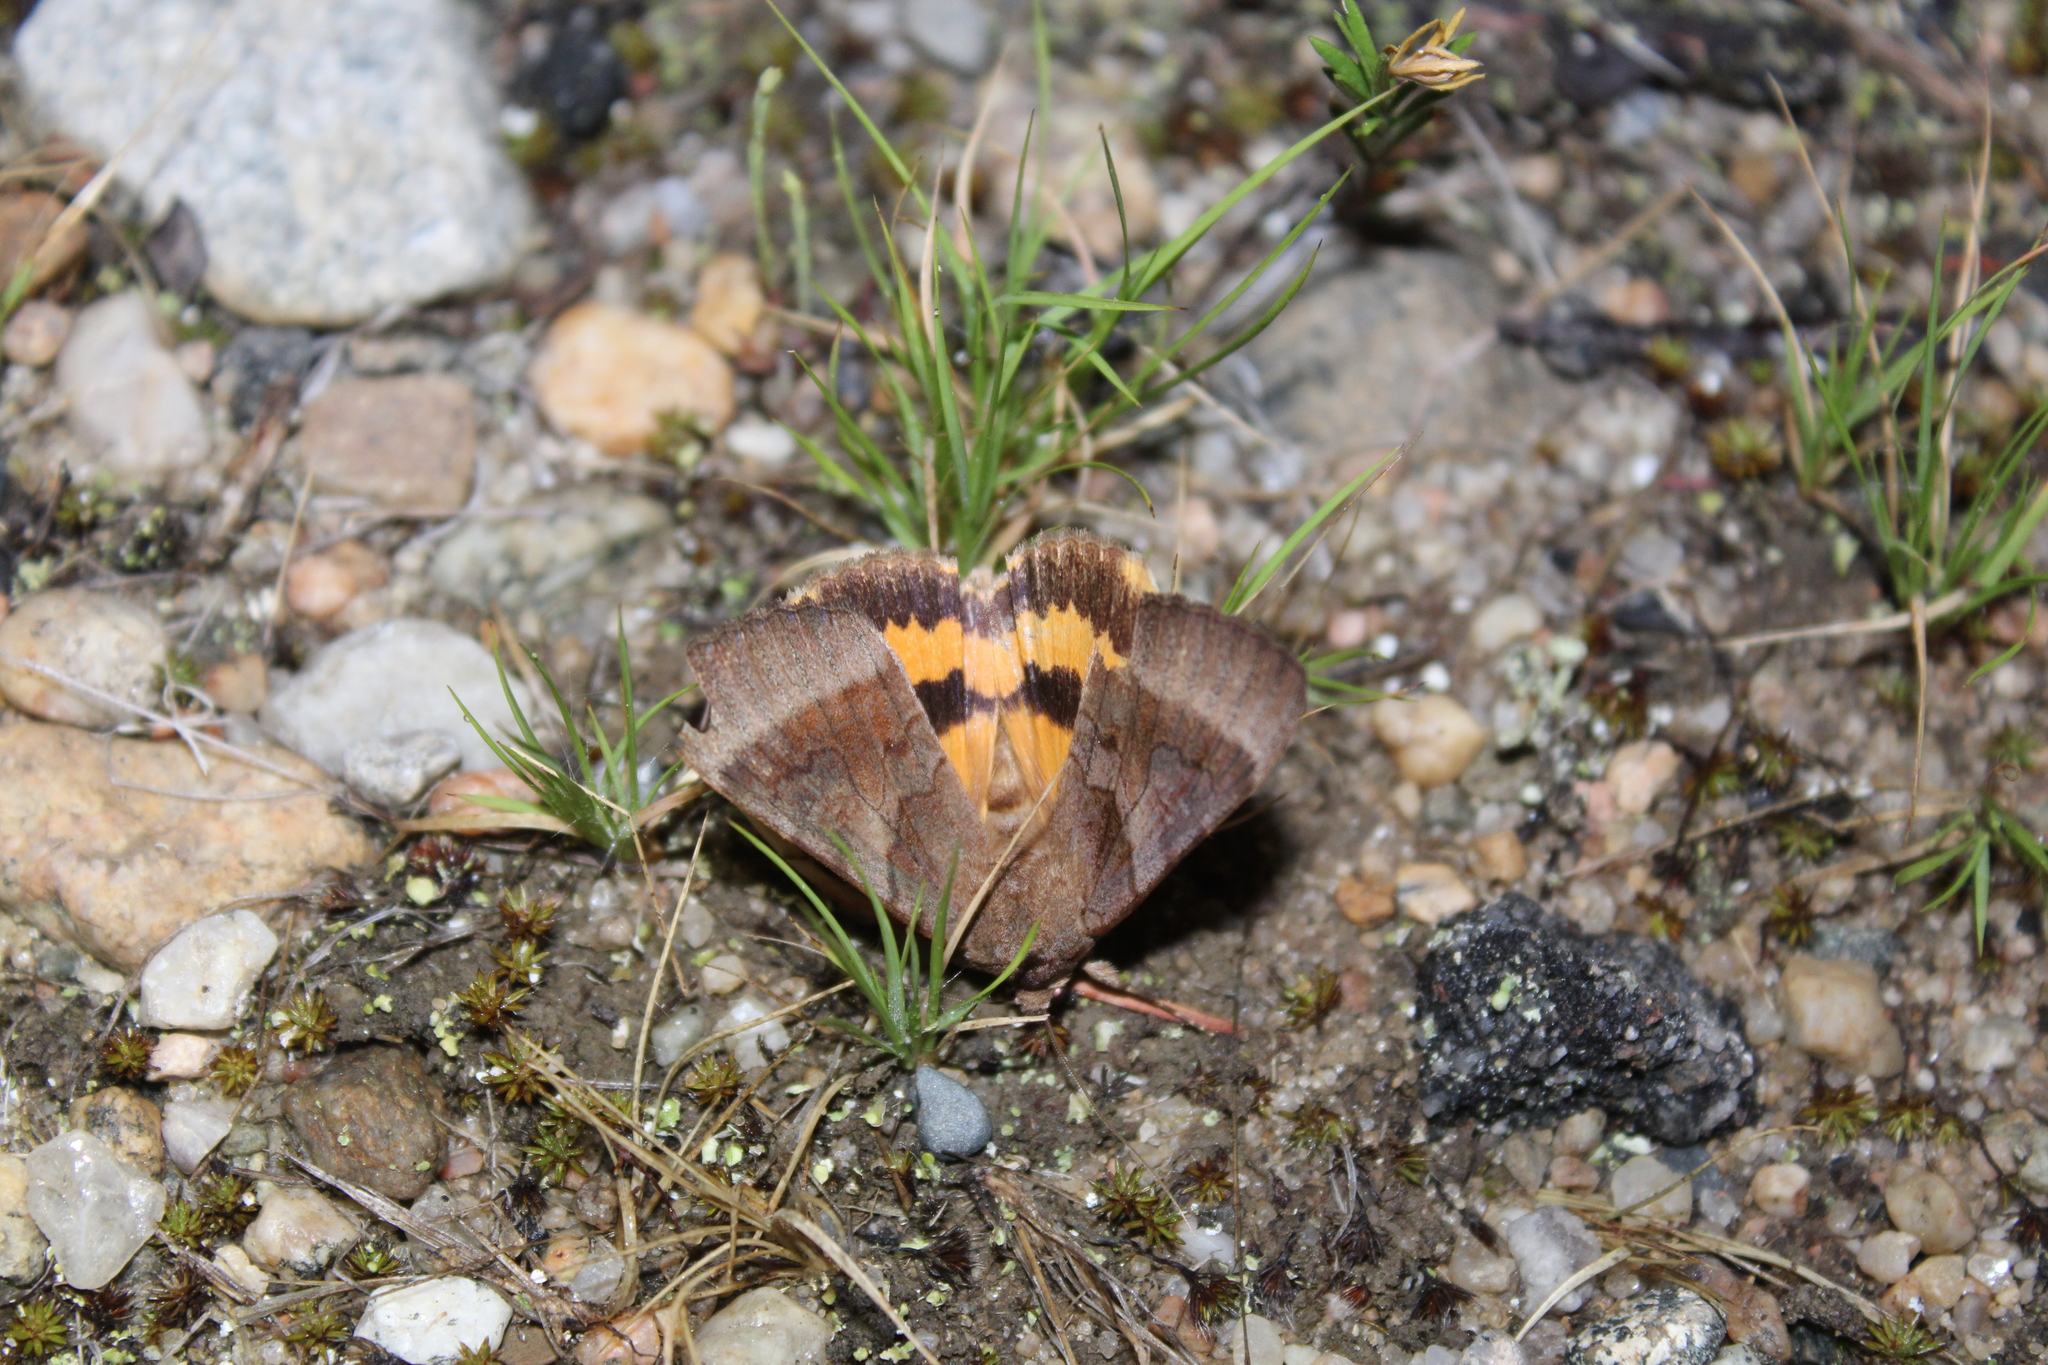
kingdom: Animalia
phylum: Arthropoda
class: Insecta
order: Lepidoptera
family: Erebidae
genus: Catocala
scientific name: Catocala badia
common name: Bay underwing
